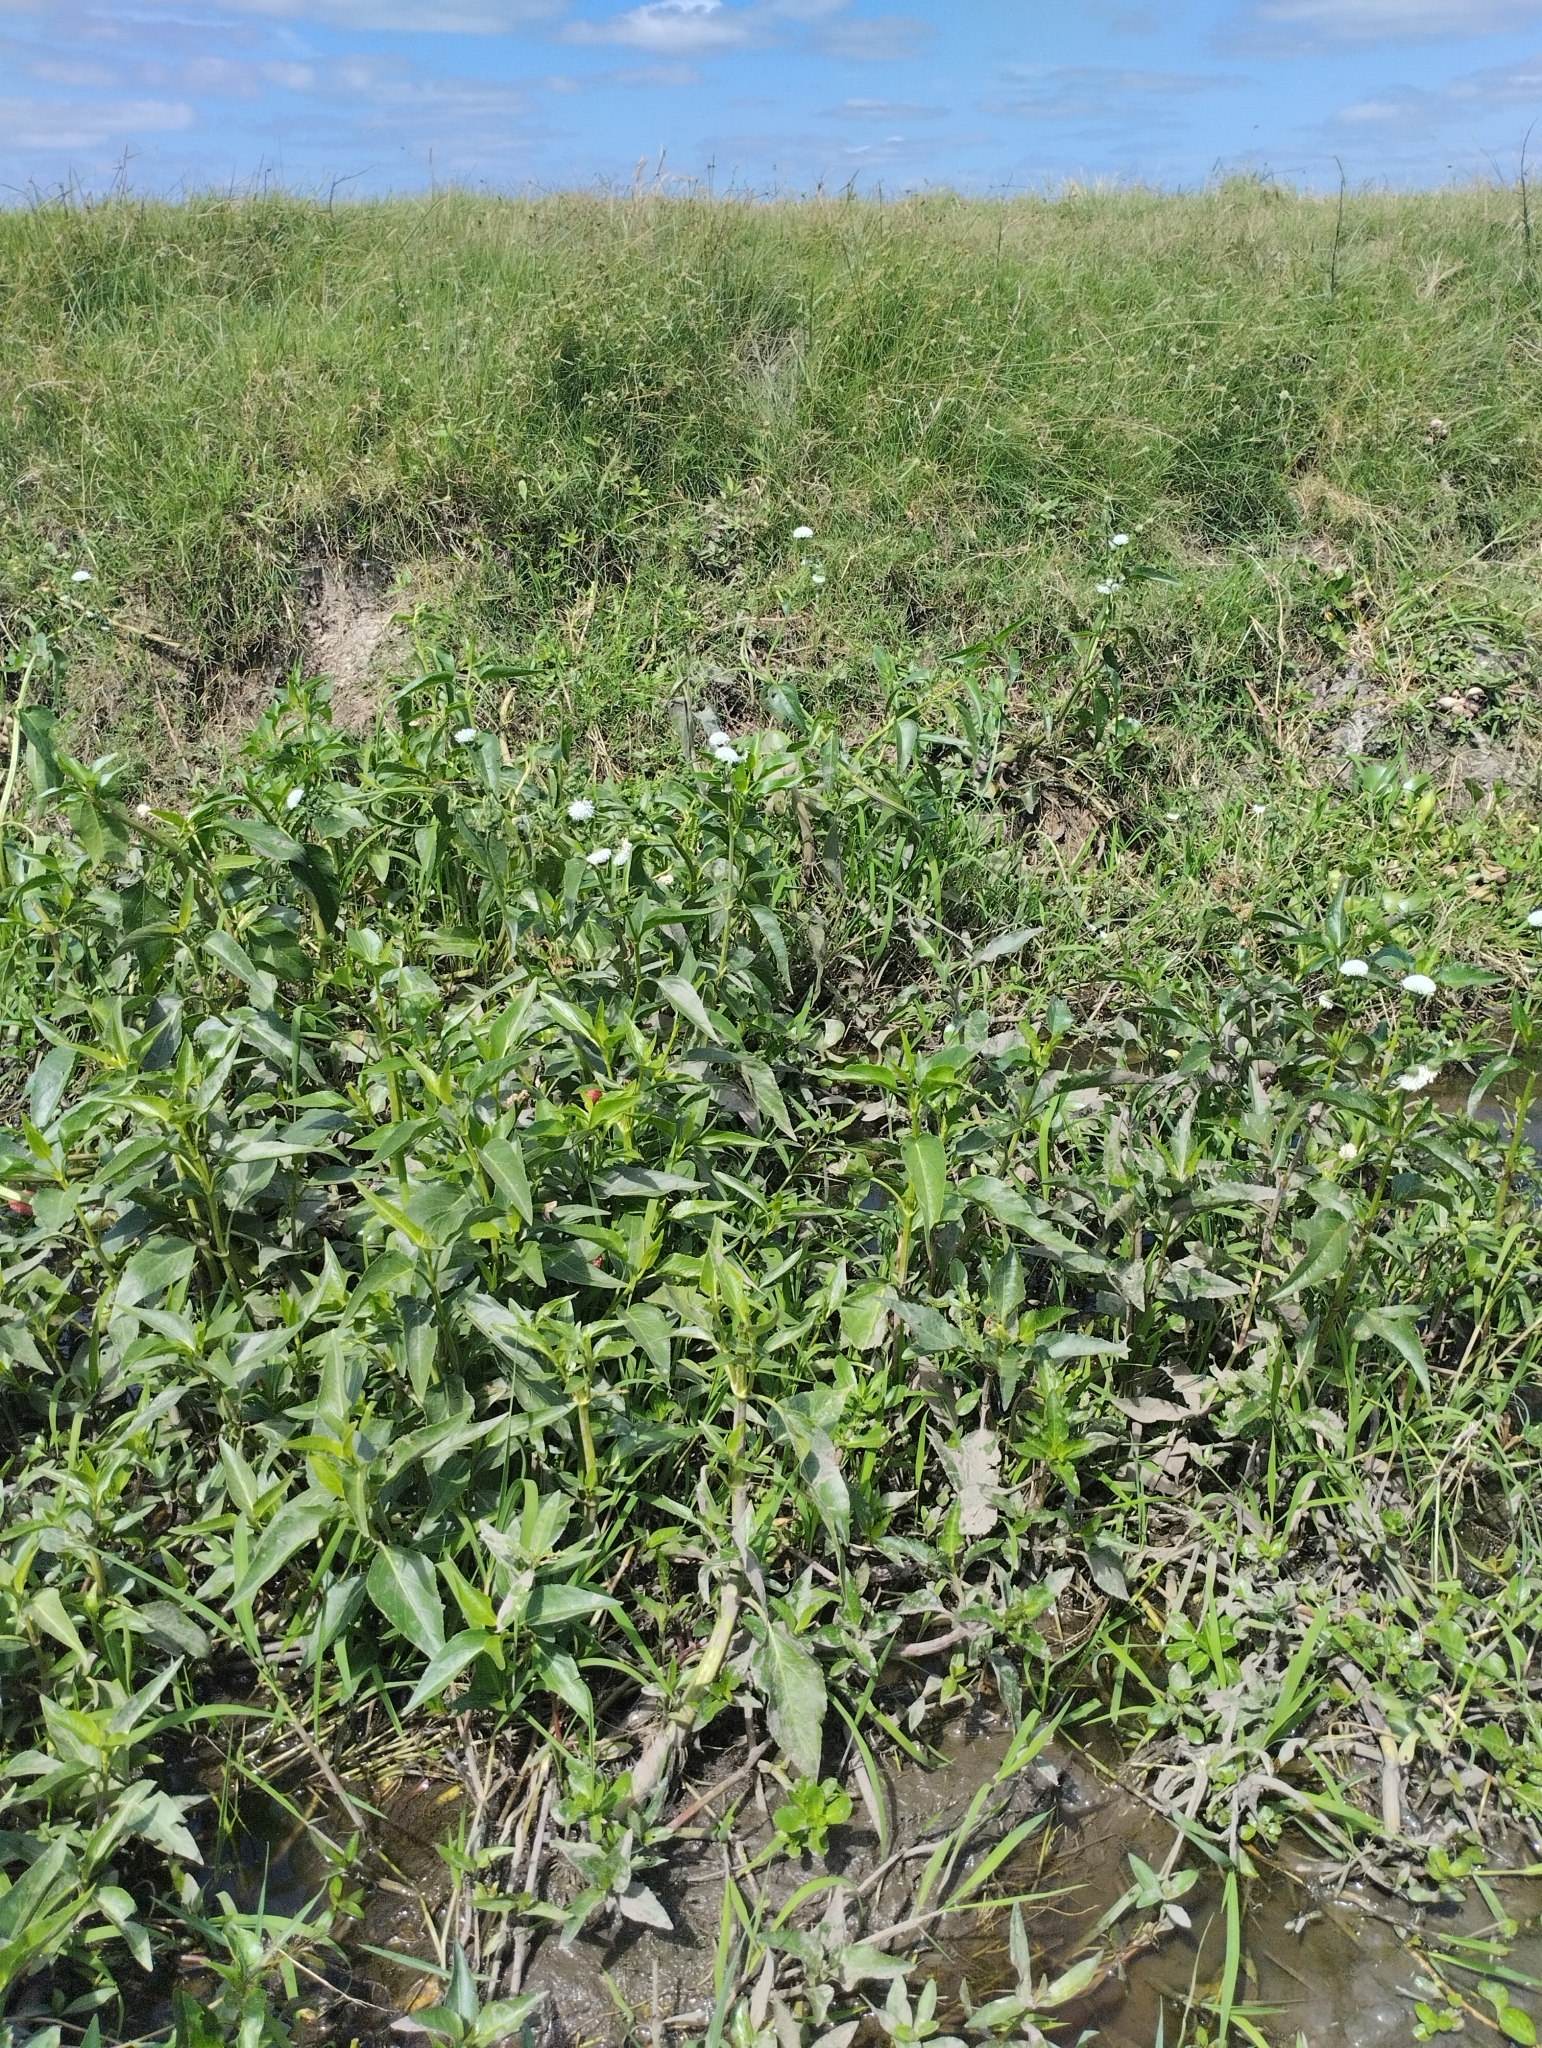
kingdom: Plantae
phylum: Tracheophyta
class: Magnoliopsida
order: Asterales
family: Asteraceae
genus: Gymnocoronis
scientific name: Gymnocoronis spilanthoides
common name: Senegal teaplant
